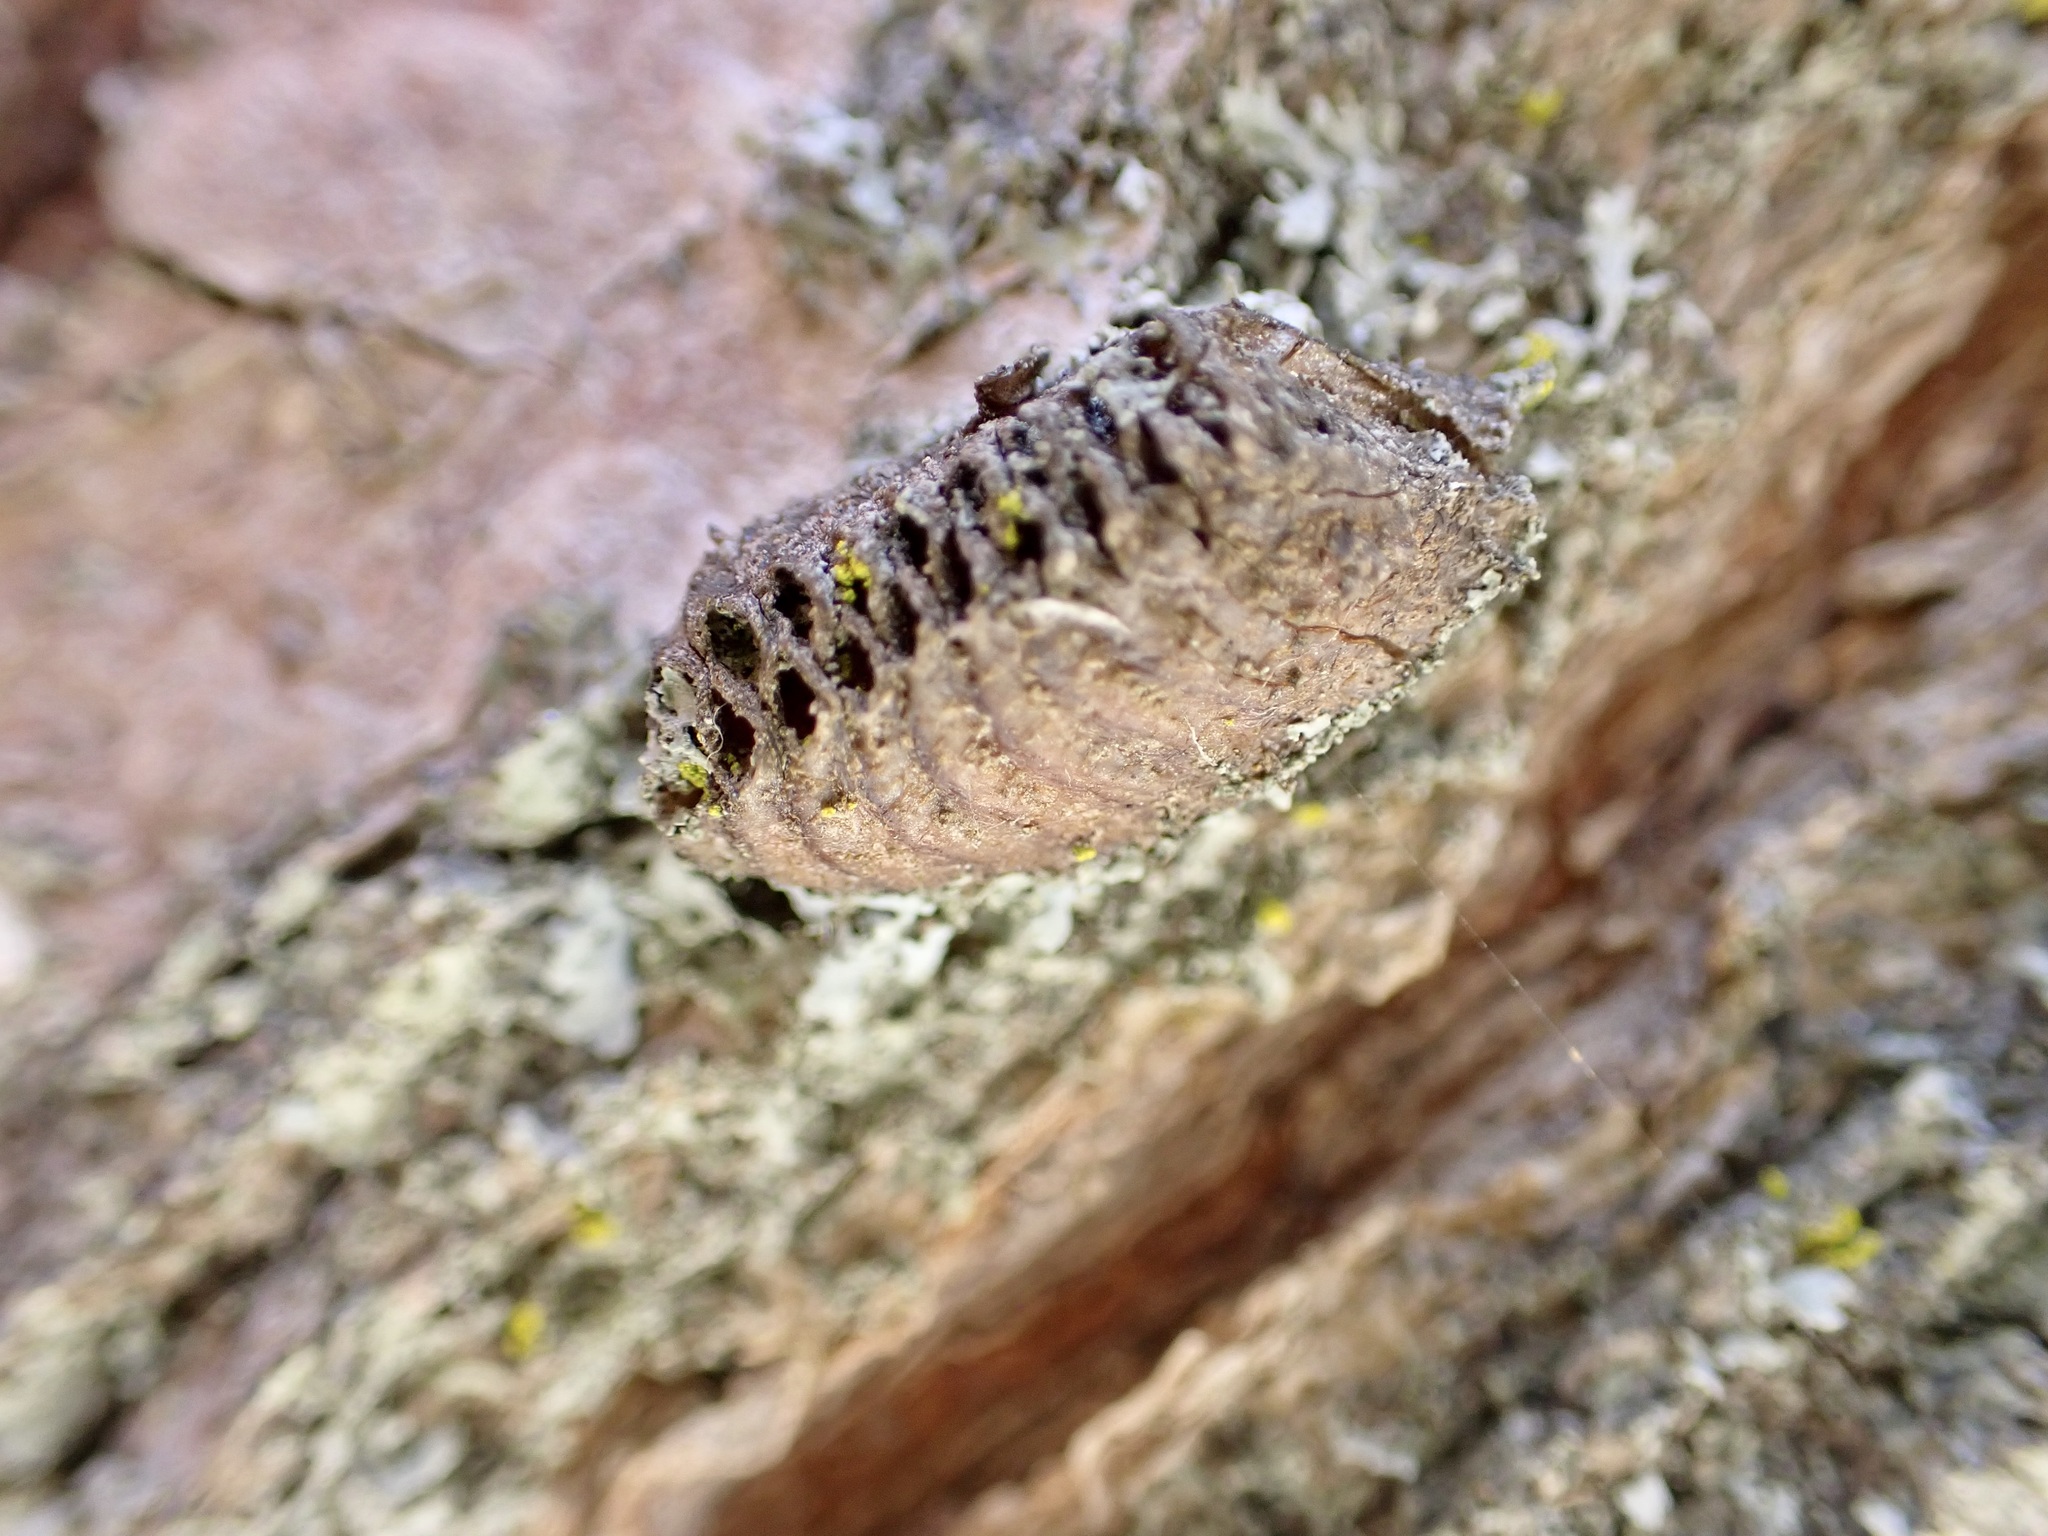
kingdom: Animalia
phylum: Arthropoda
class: Insecta
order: Mantodea
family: Mantidae
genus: Orthodera
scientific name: Orthodera novaezealandiae
